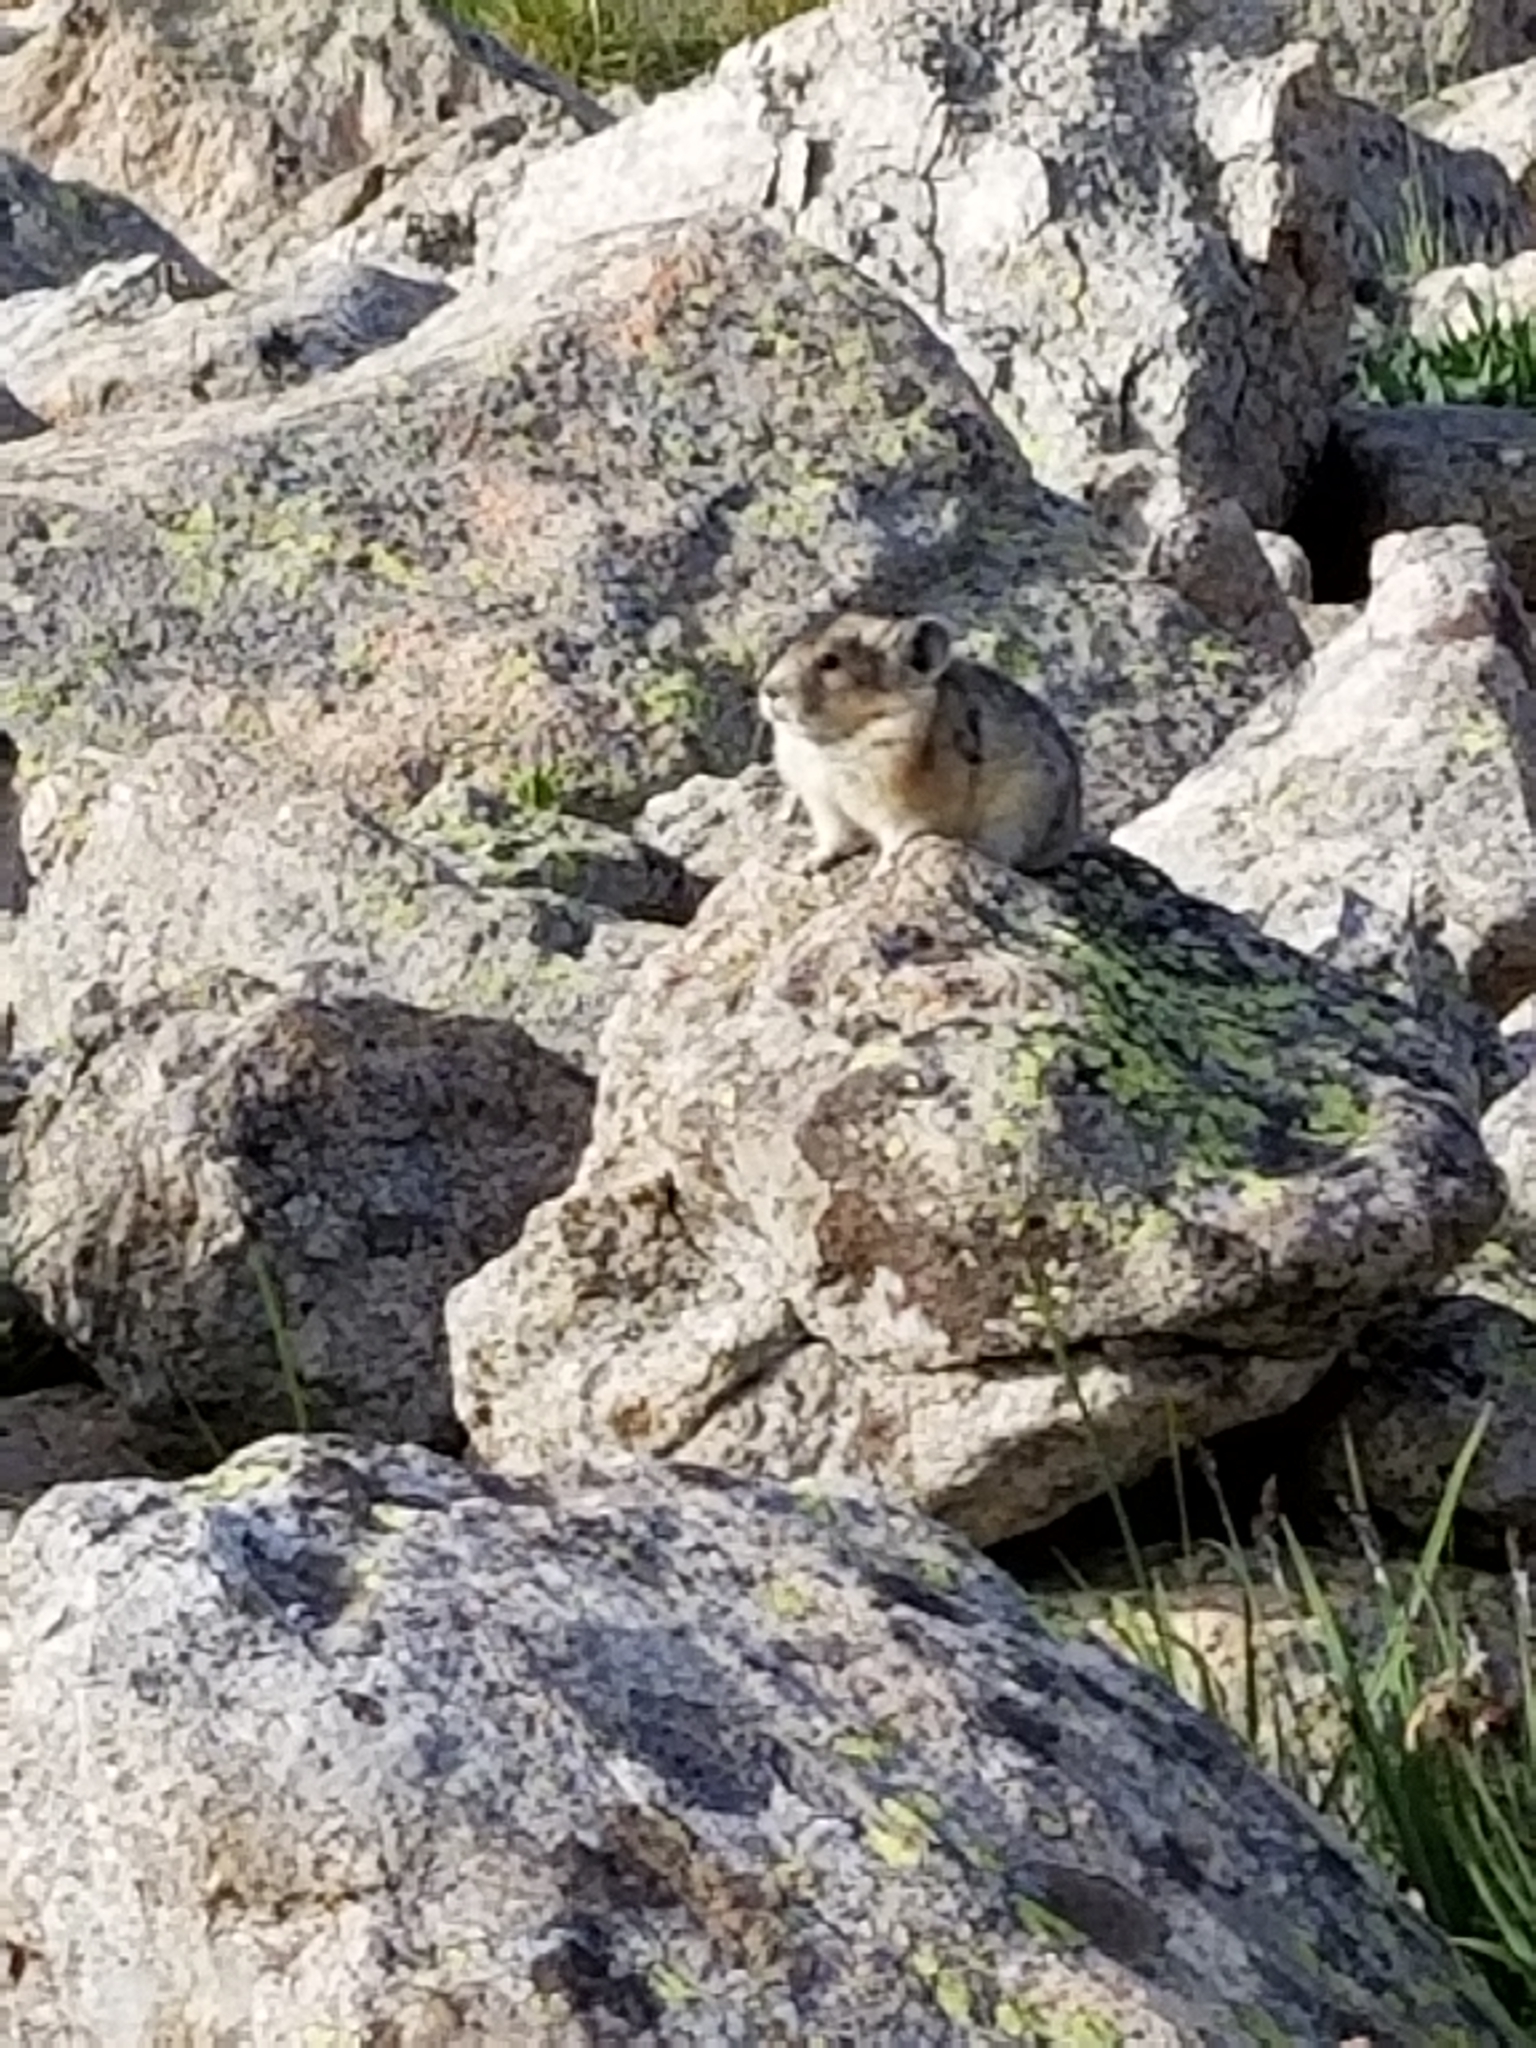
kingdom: Animalia
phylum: Chordata
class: Mammalia
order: Lagomorpha
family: Ochotonidae
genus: Ochotona
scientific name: Ochotona princeps
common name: American pika
